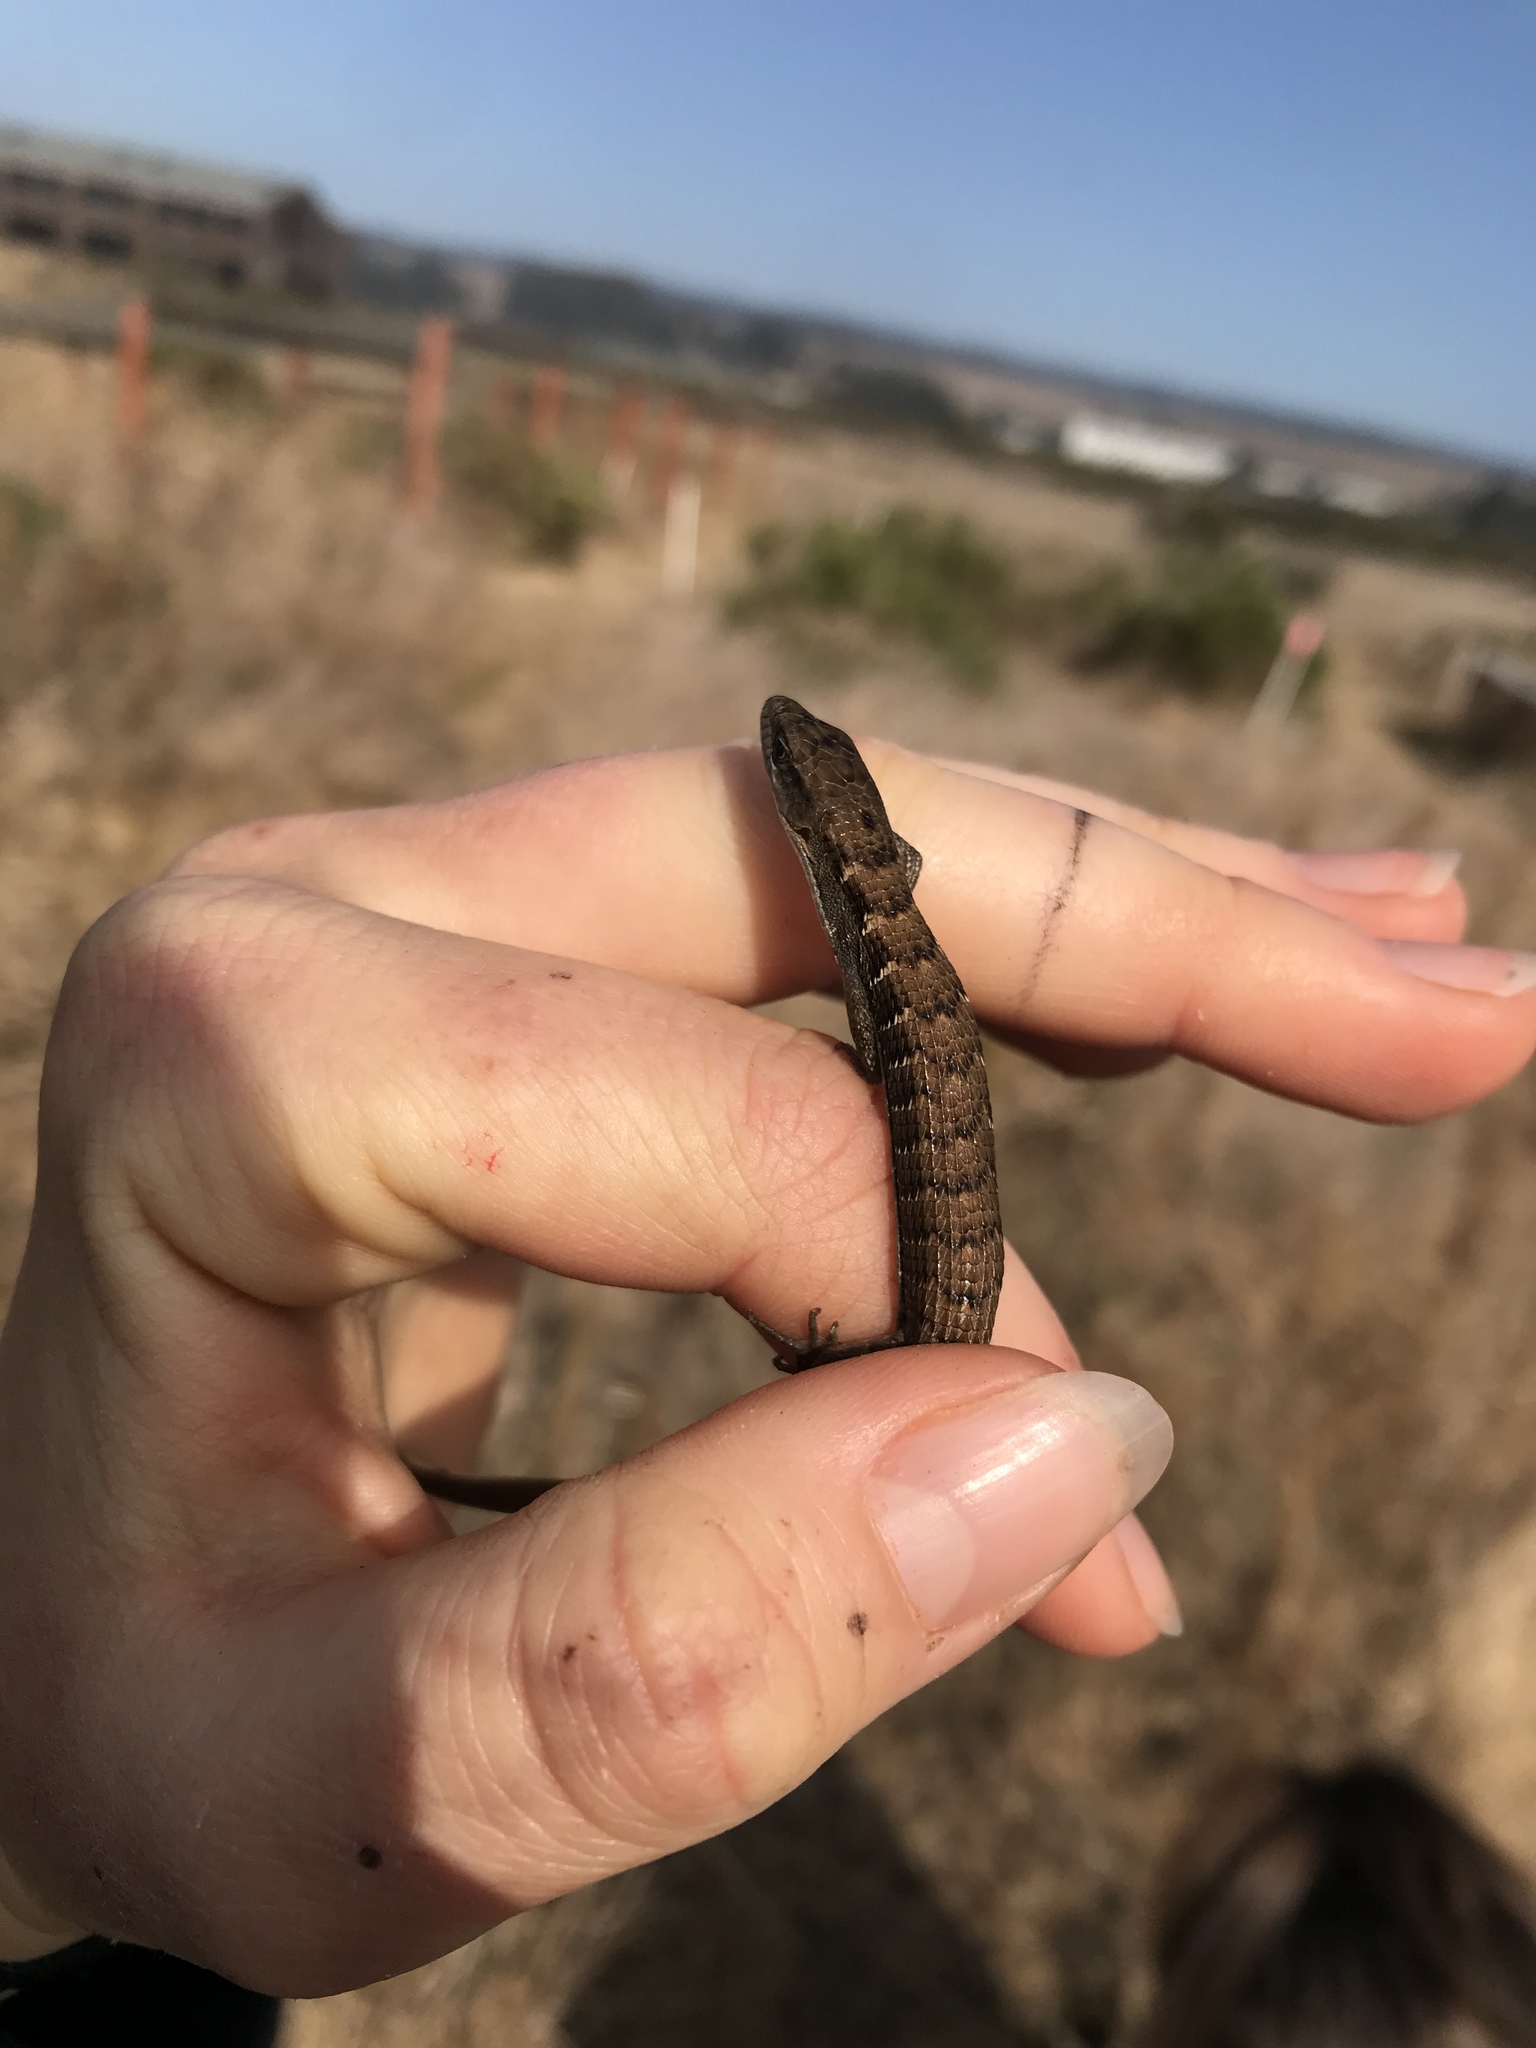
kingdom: Animalia
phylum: Chordata
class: Squamata
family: Anguidae
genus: Elgaria
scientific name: Elgaria multicarinata
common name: Southern alligator lizard
